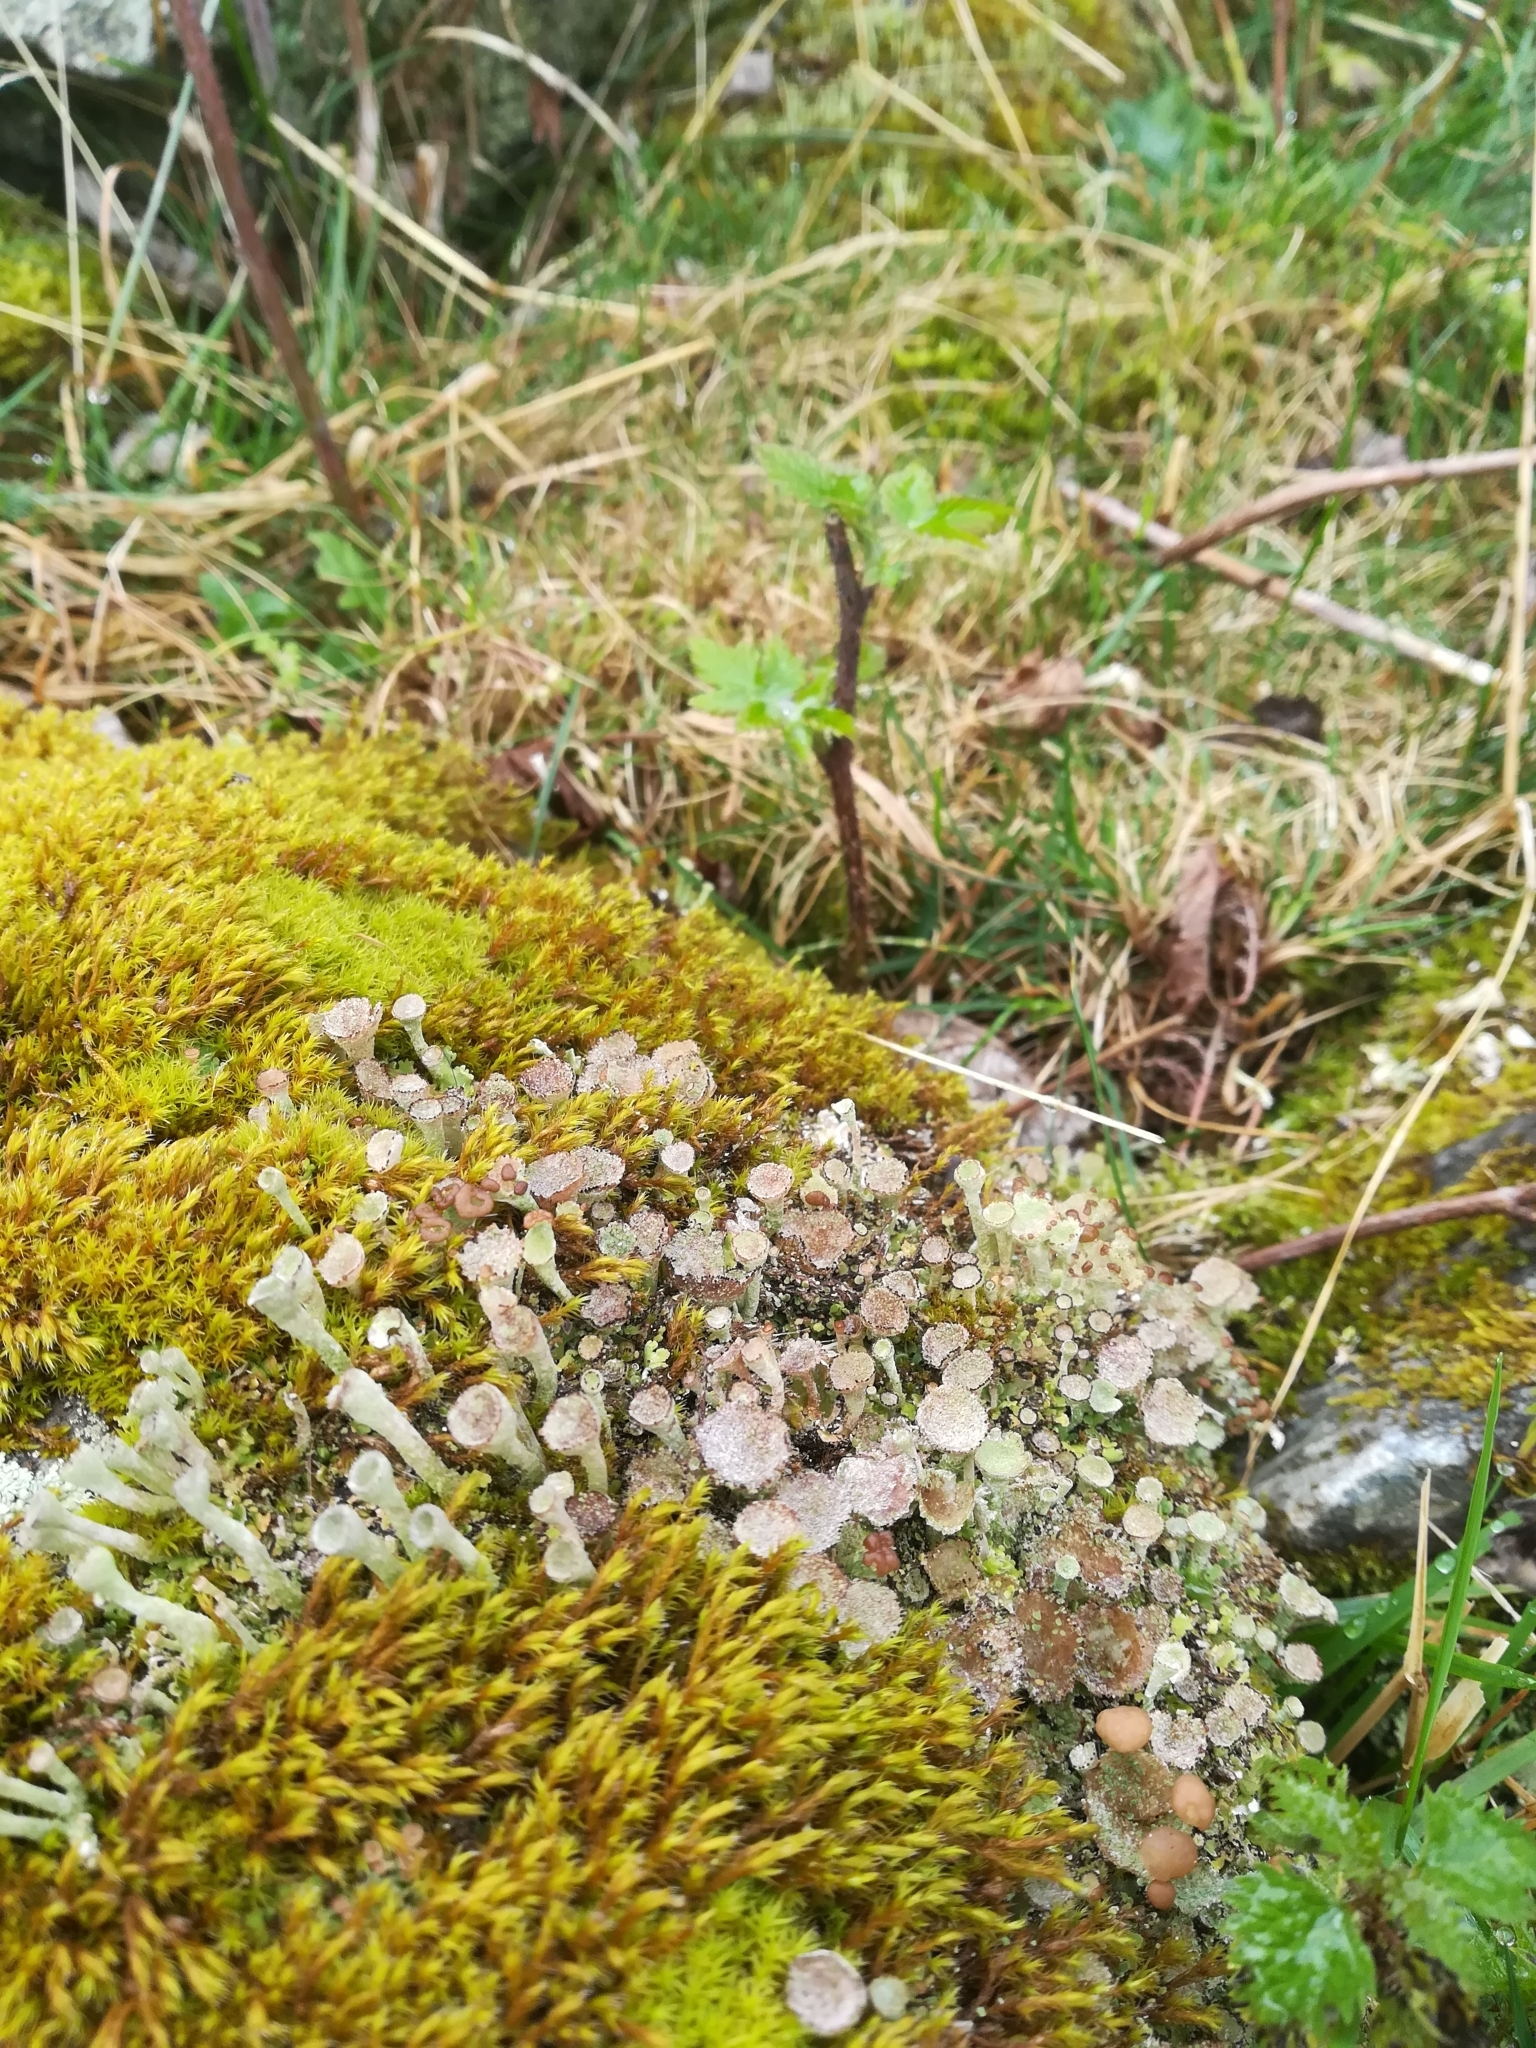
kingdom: Fungi
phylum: Ascomycota
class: Lecanoromycetes
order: Lecanorales
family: Cladoniaceae
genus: Cladonia
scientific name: Cladonia
